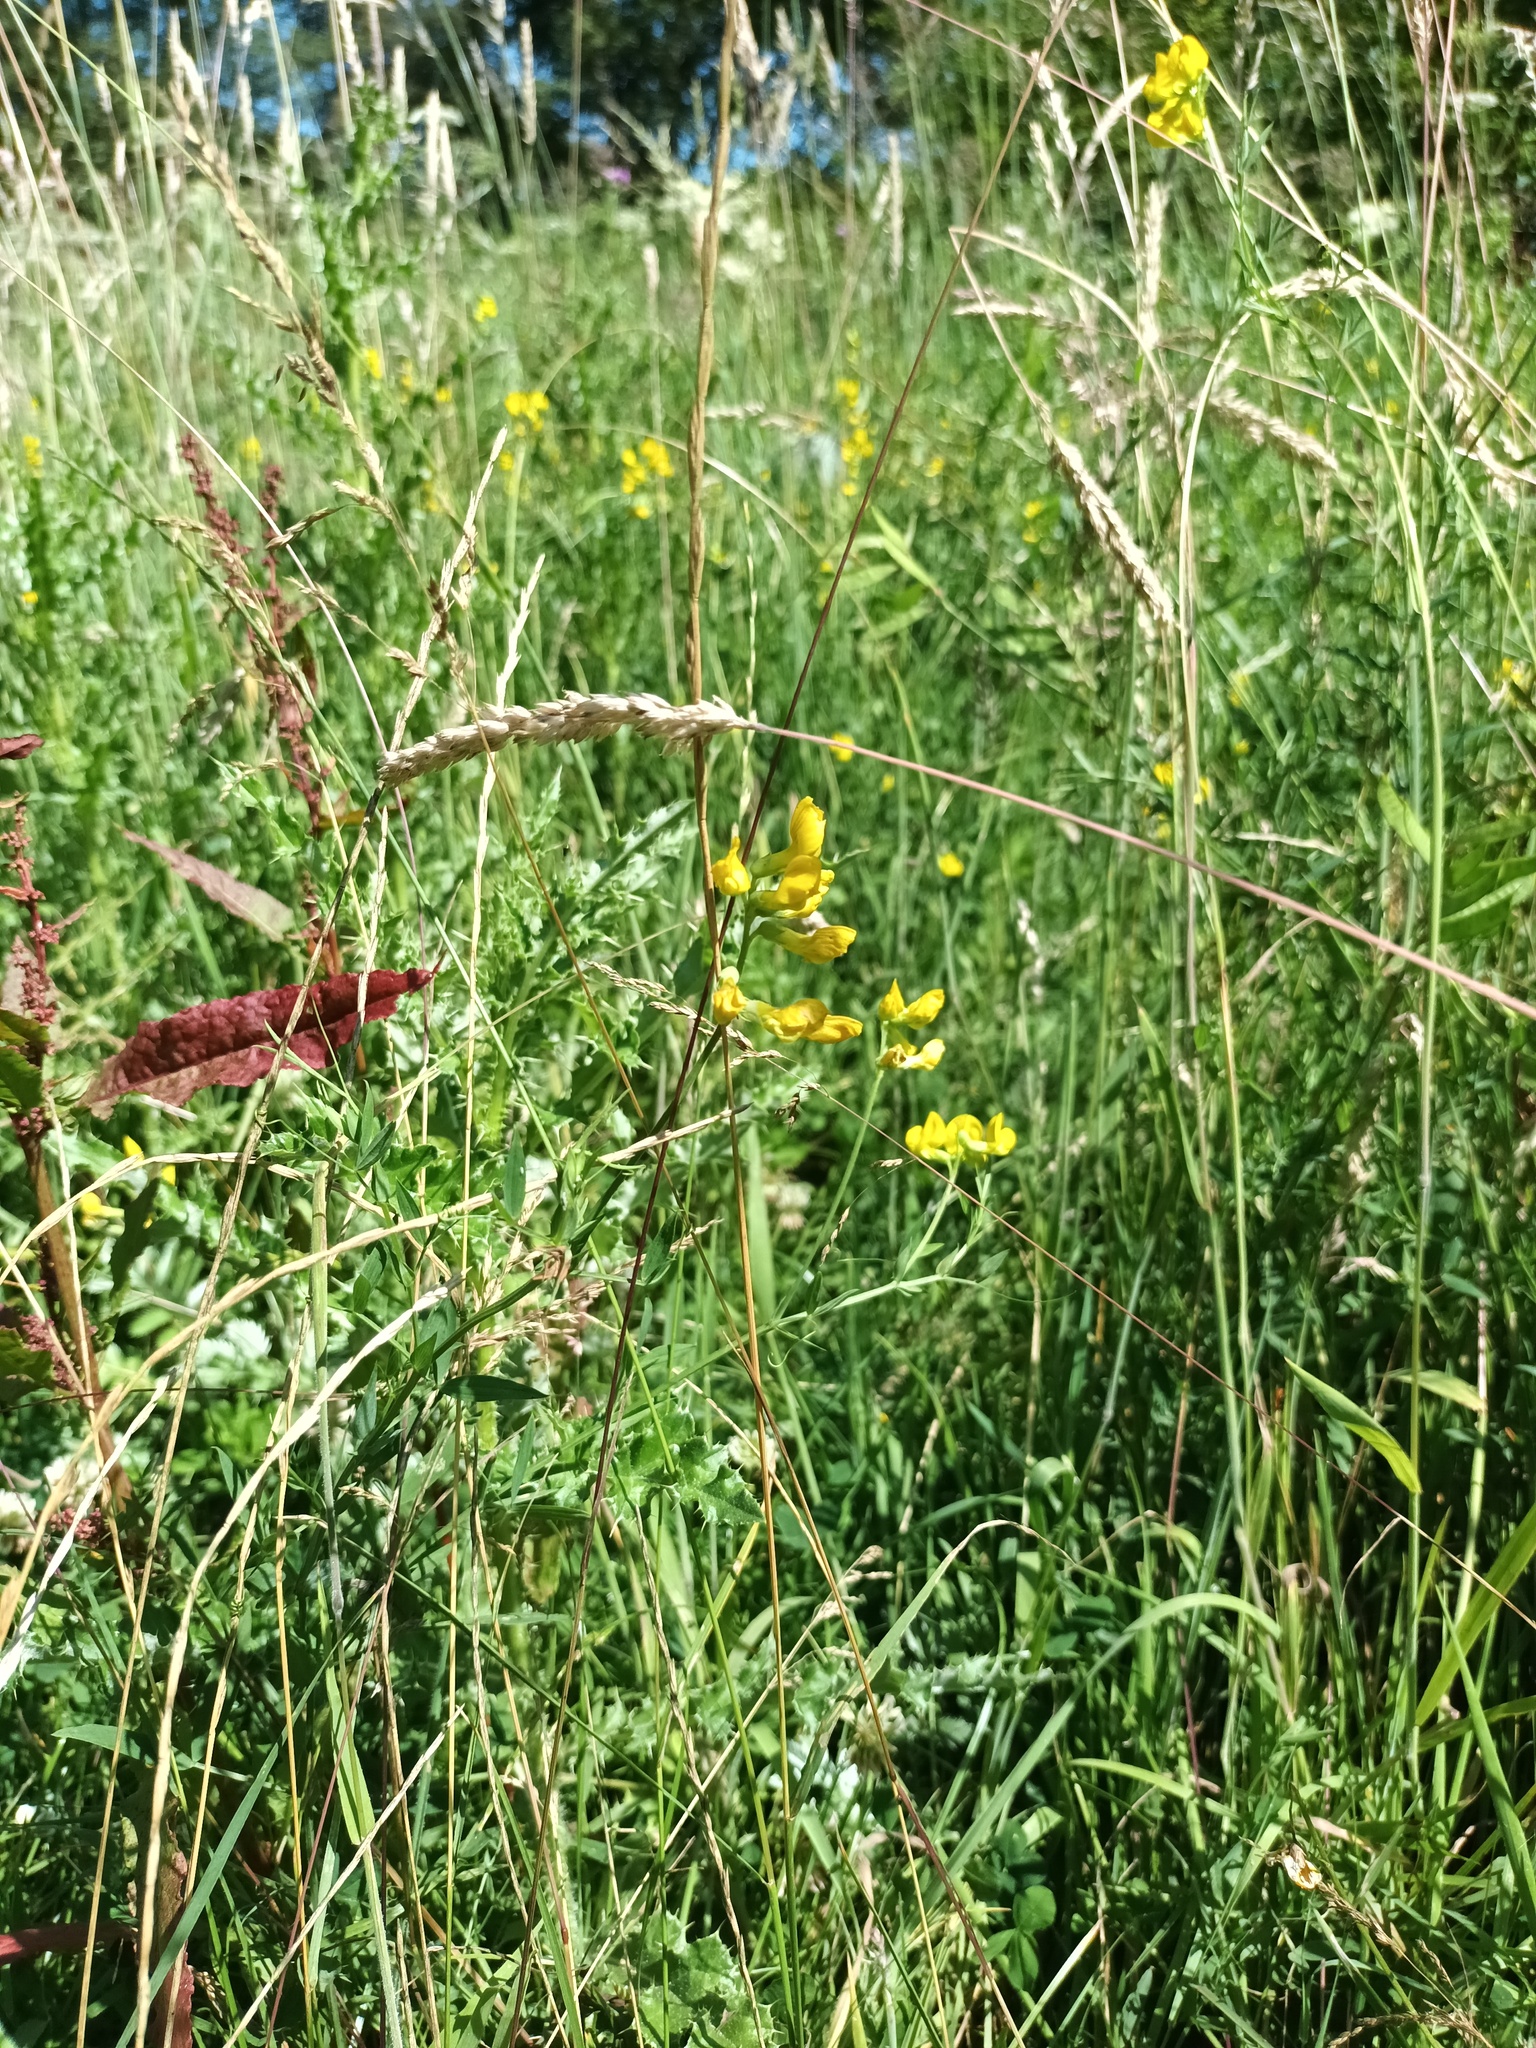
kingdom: Plantae
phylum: Tracheophyta
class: Magnoliopsida
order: Fabales
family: Fabaceae
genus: Lathyrus
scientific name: Lathyrus pratensis
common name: Meadow vetchling
